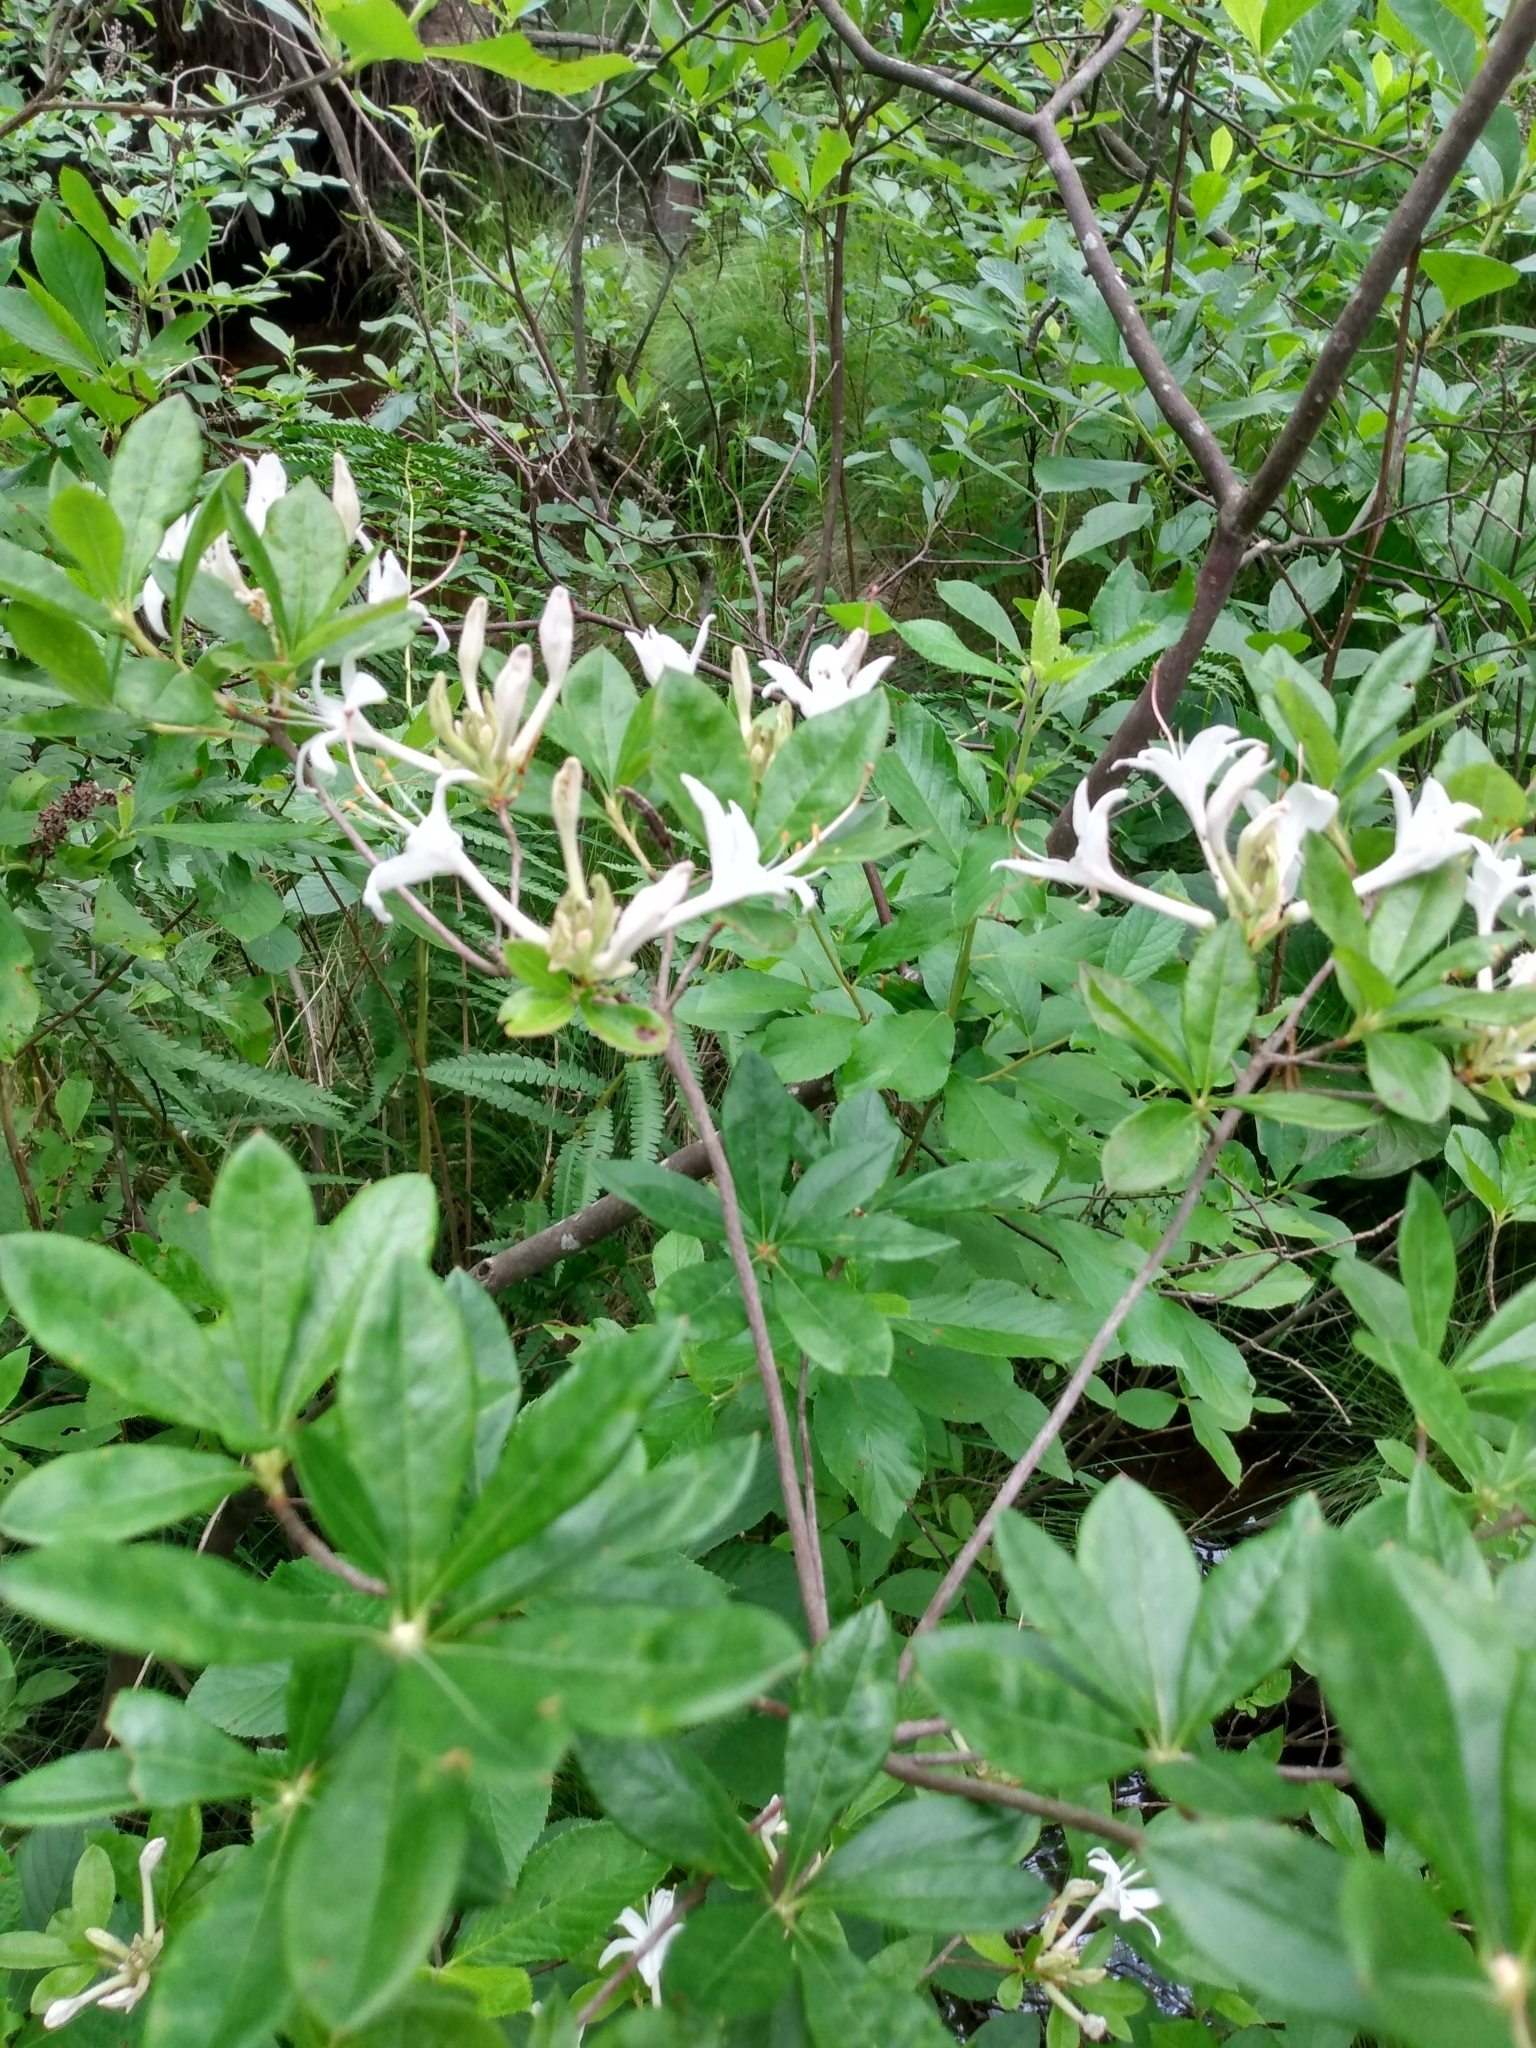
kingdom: Plantae
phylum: Tracheophyta
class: Magnoliopsida
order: Ericales
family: Ericaceae
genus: Rhododendron
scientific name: Rhododendron viscosum
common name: Clammy azalea
